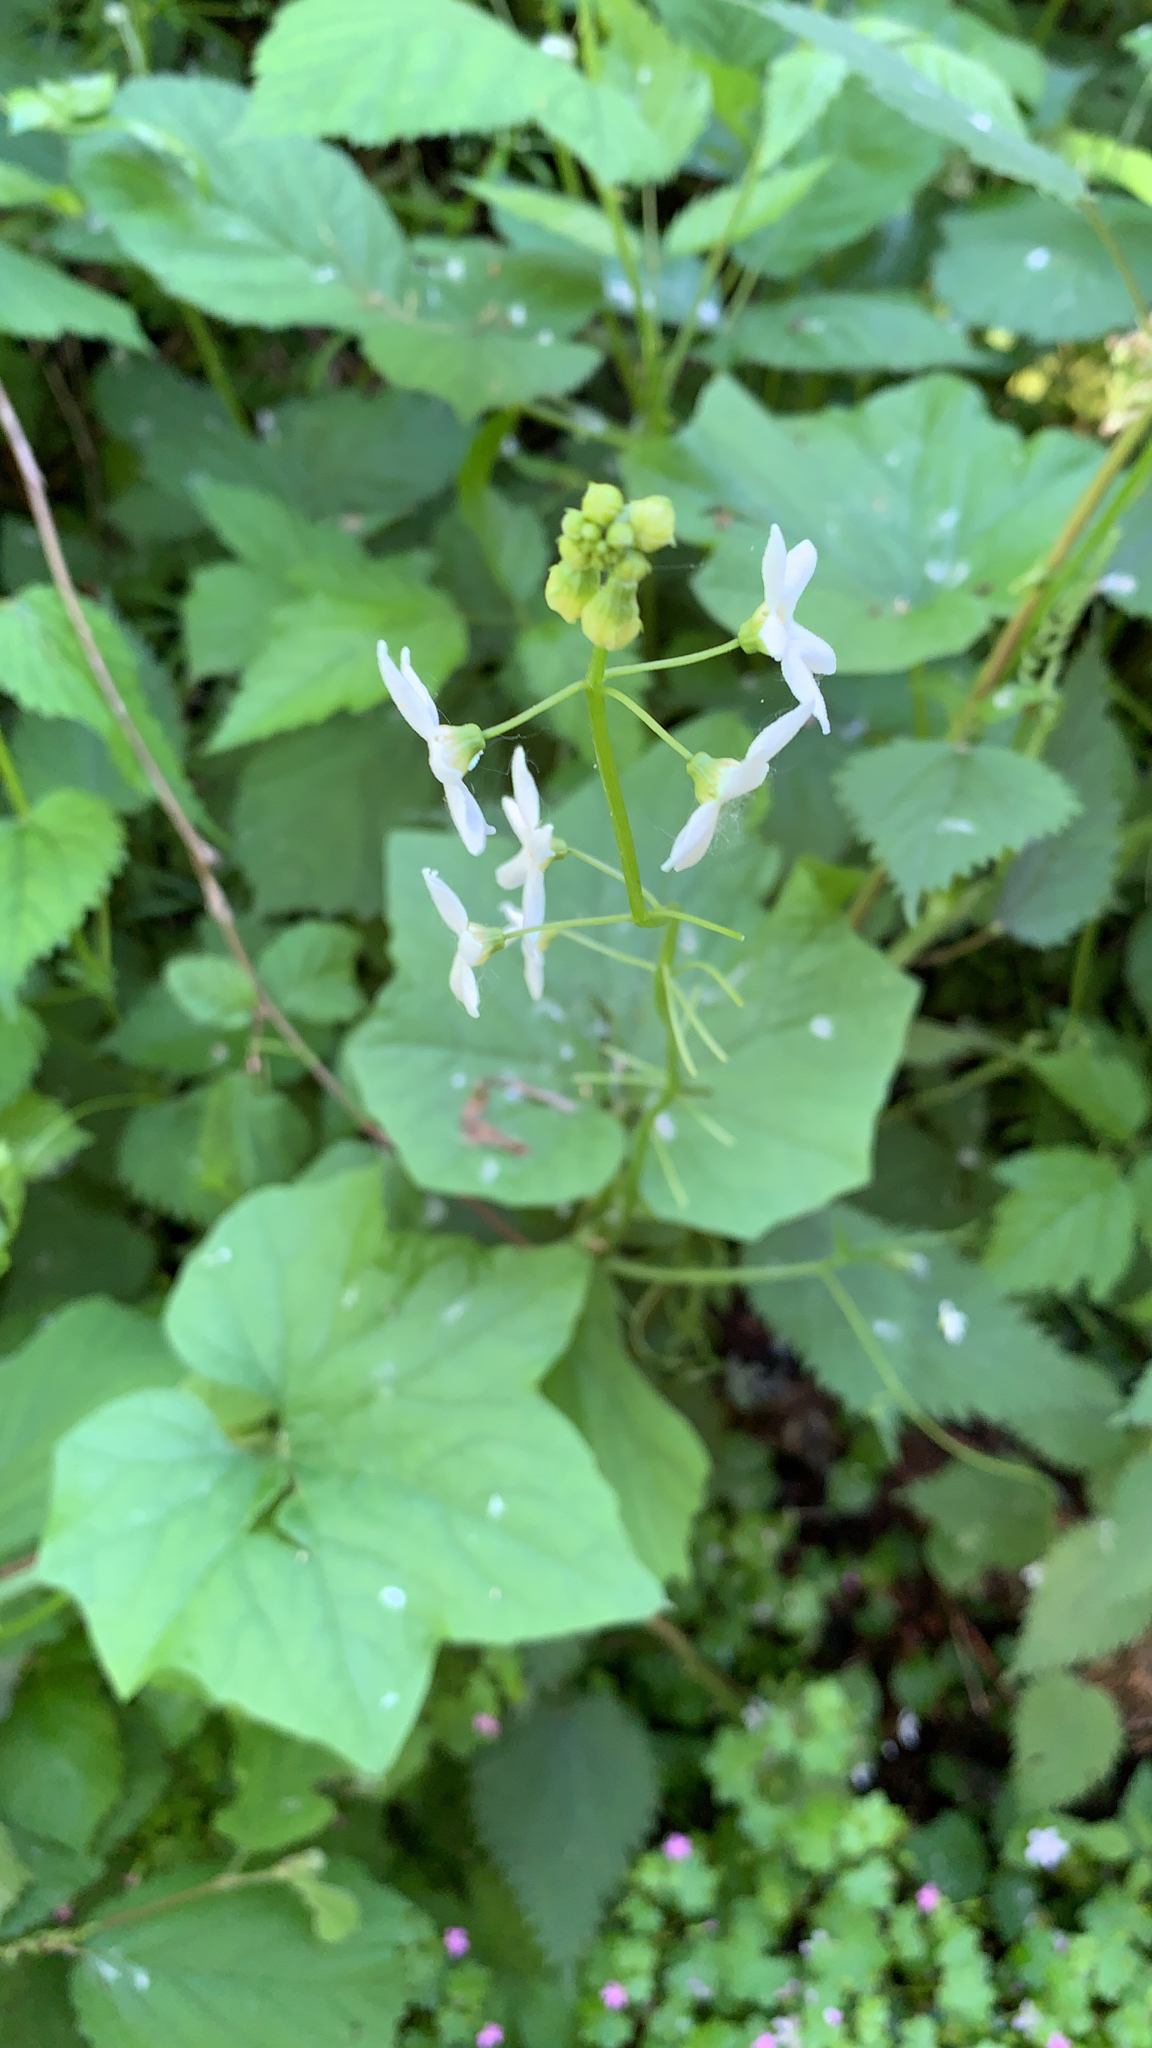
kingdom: Plantae
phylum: Tracheophyta
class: Magnoliopsida
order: Cucurbitales
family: Cucurbitaceae
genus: Marah
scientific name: Marah oregana
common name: Coastal manroot
